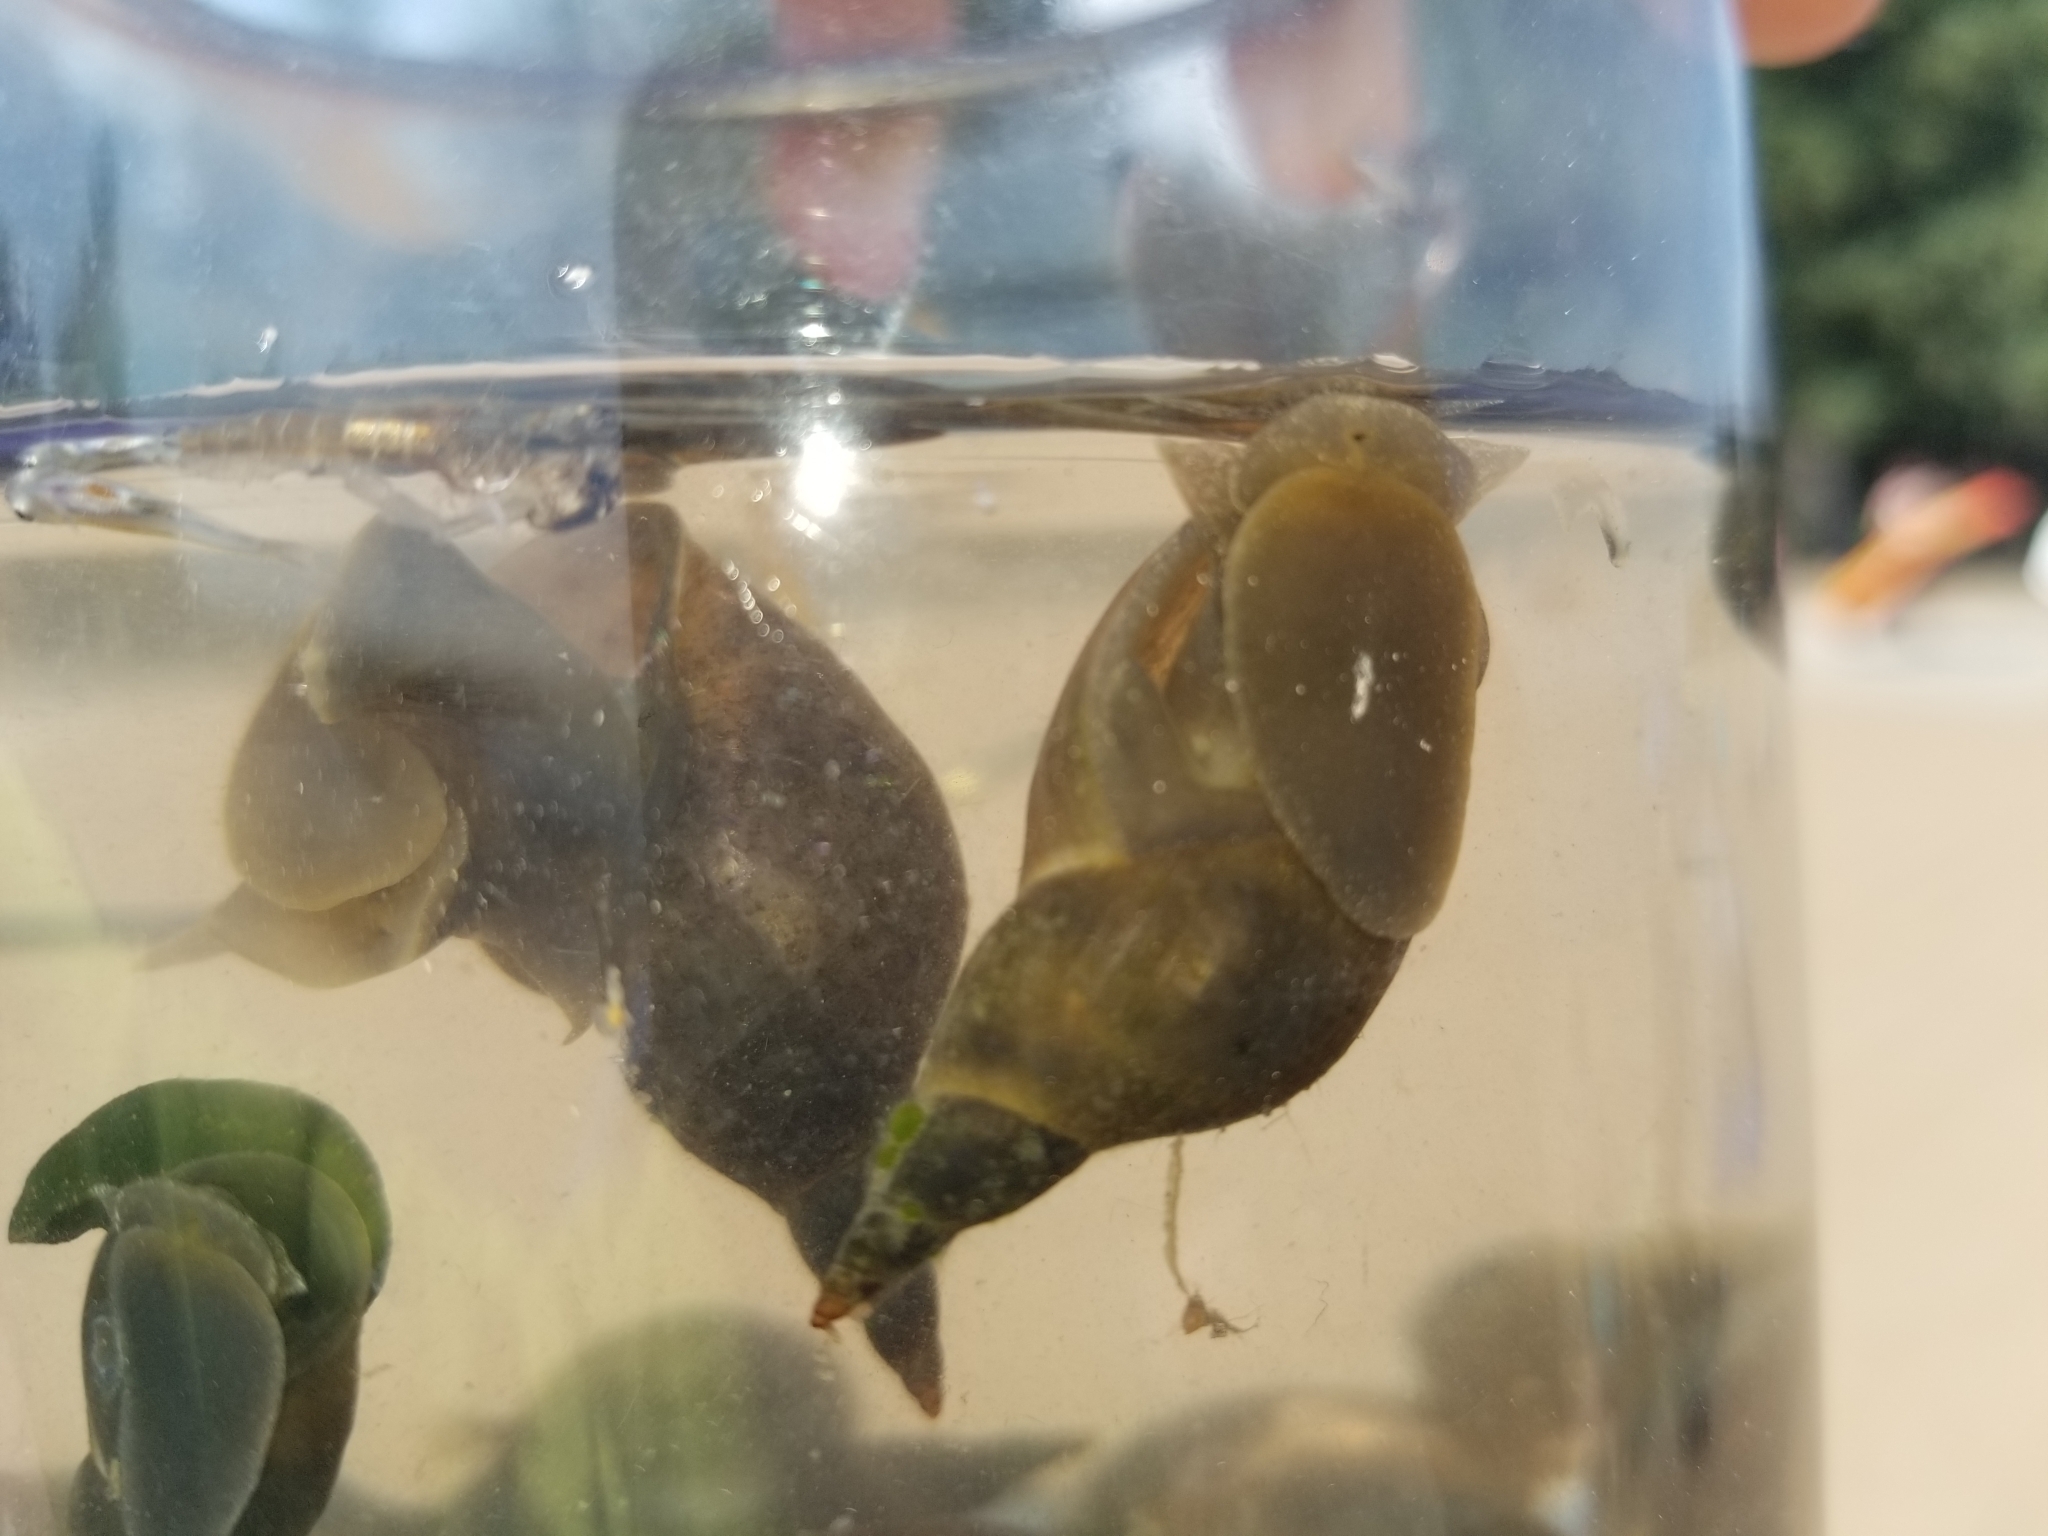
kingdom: Animalia
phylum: Mollusca
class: Gastropoda
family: Lymnaeidae
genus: Lymnaea
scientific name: Lymnaea stagnalis
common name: Great pond snail
